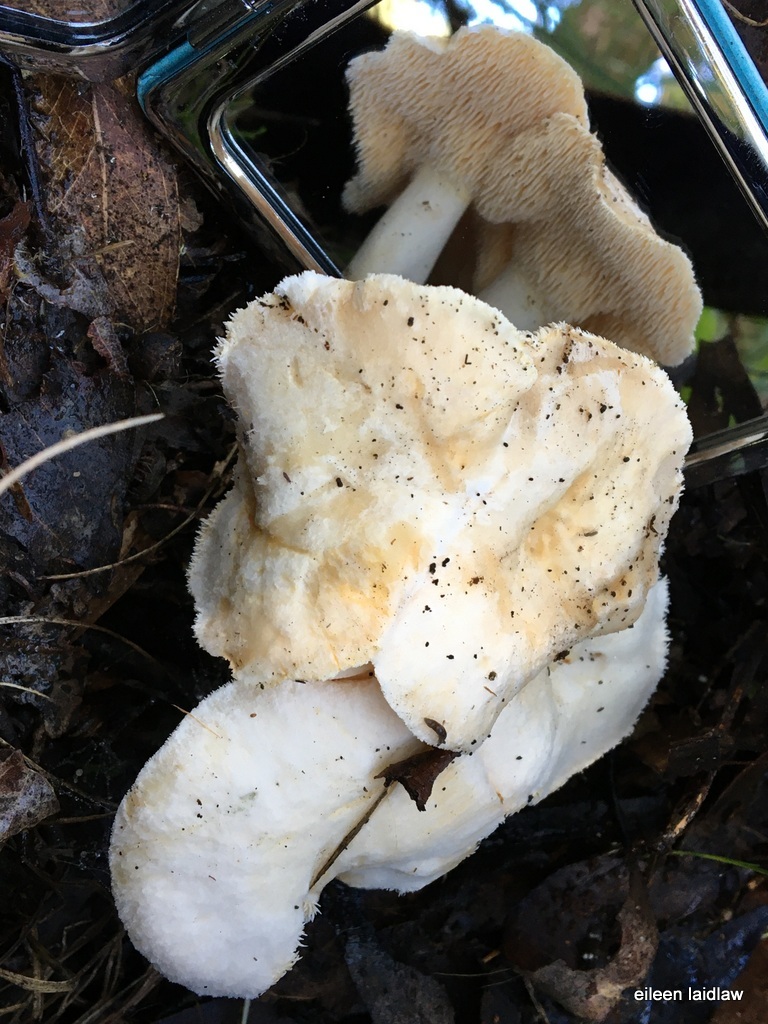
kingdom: Fungi
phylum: Basidiomycota
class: Agaricomycetes
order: Cantharellales
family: Hydnaceae
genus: Hydnum
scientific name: Hydnum repandum
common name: Wood hedgehog
